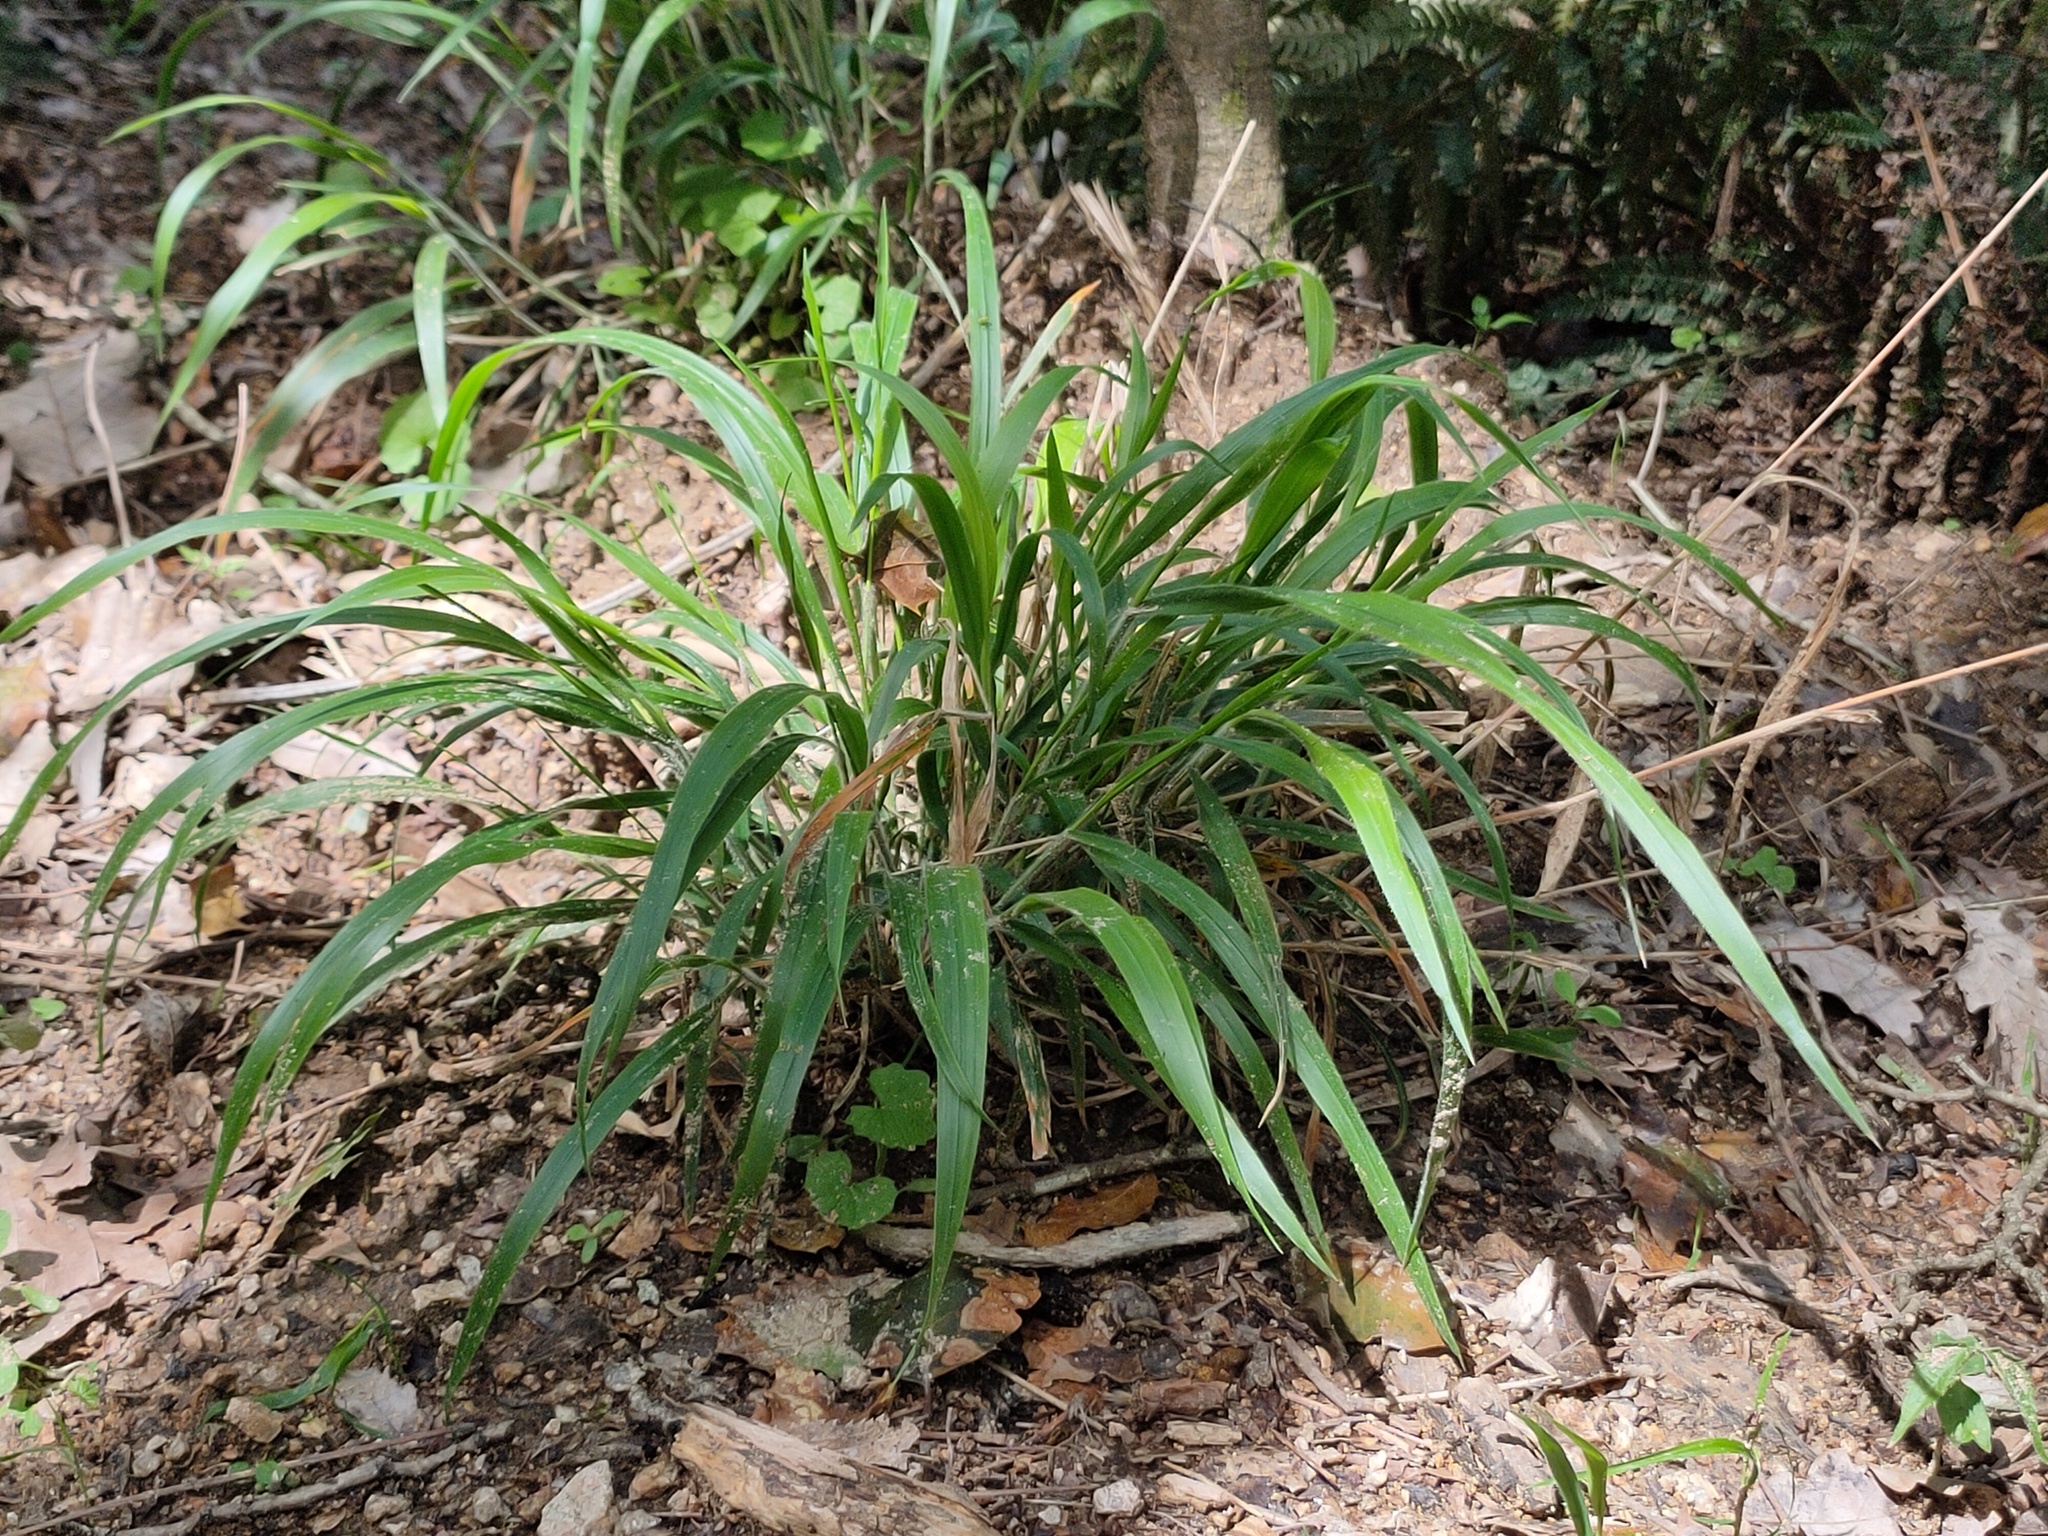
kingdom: Plantae
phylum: Tracheophyta
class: Liliopsida
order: Poales
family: Poaceae
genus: Brachypodium
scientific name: Brachypodium sylvaticum
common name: False-brome
